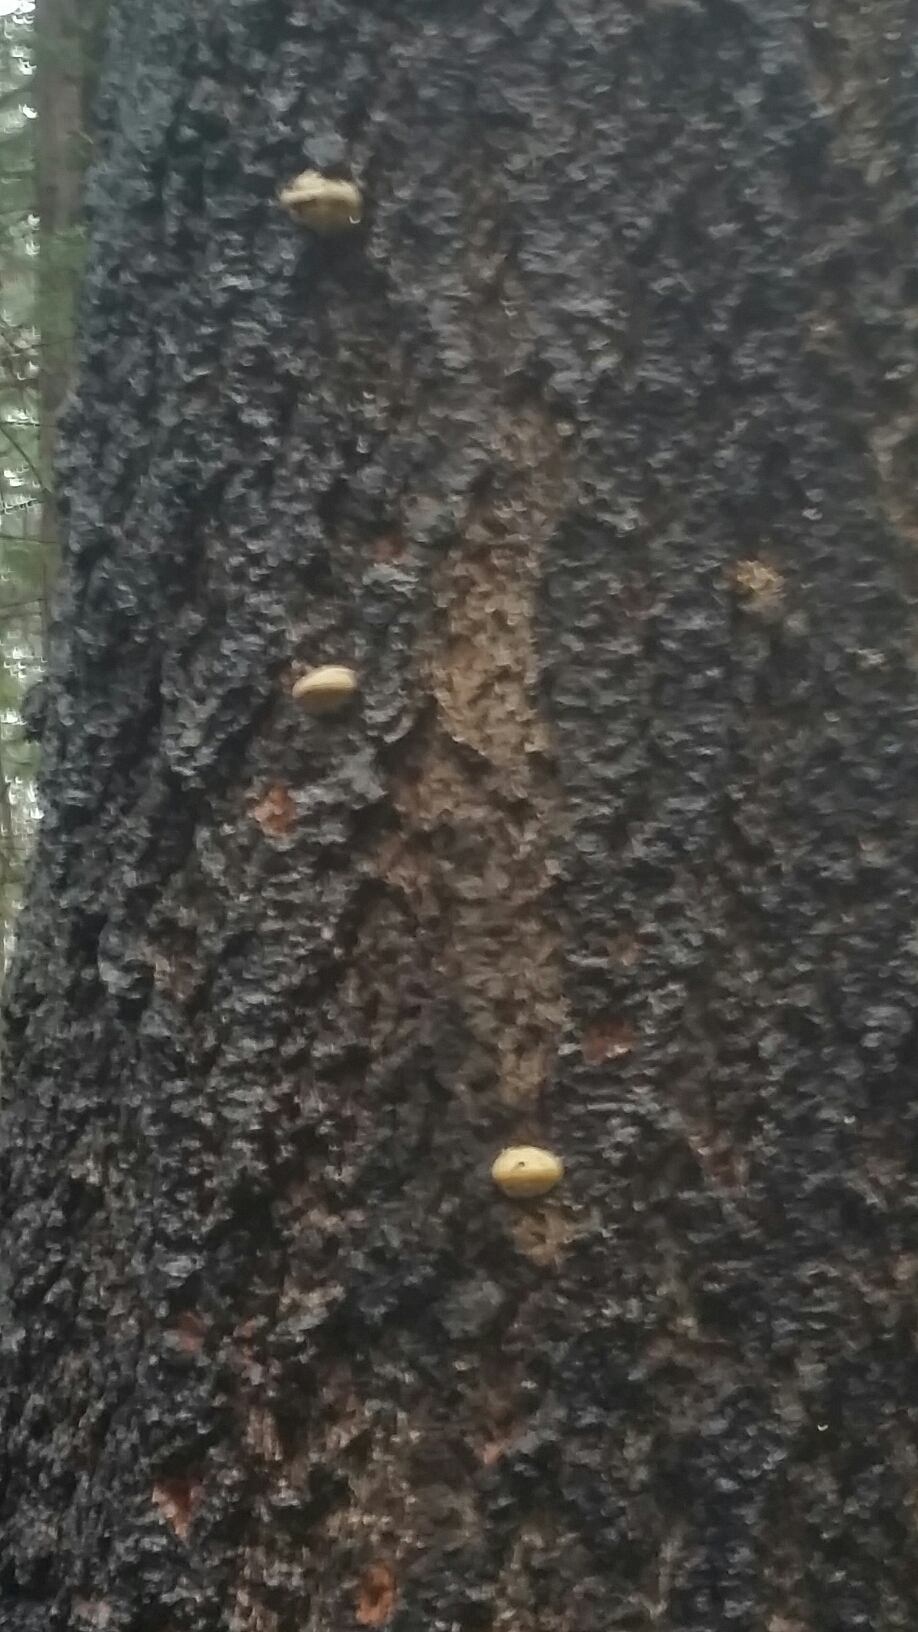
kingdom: Fungi
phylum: Basidiomycota
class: Agaricomycetes
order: Polyporales
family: Polyporaceae
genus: Cryptoporus
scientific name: Cryptoporus volvatus
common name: Veiled polypore
